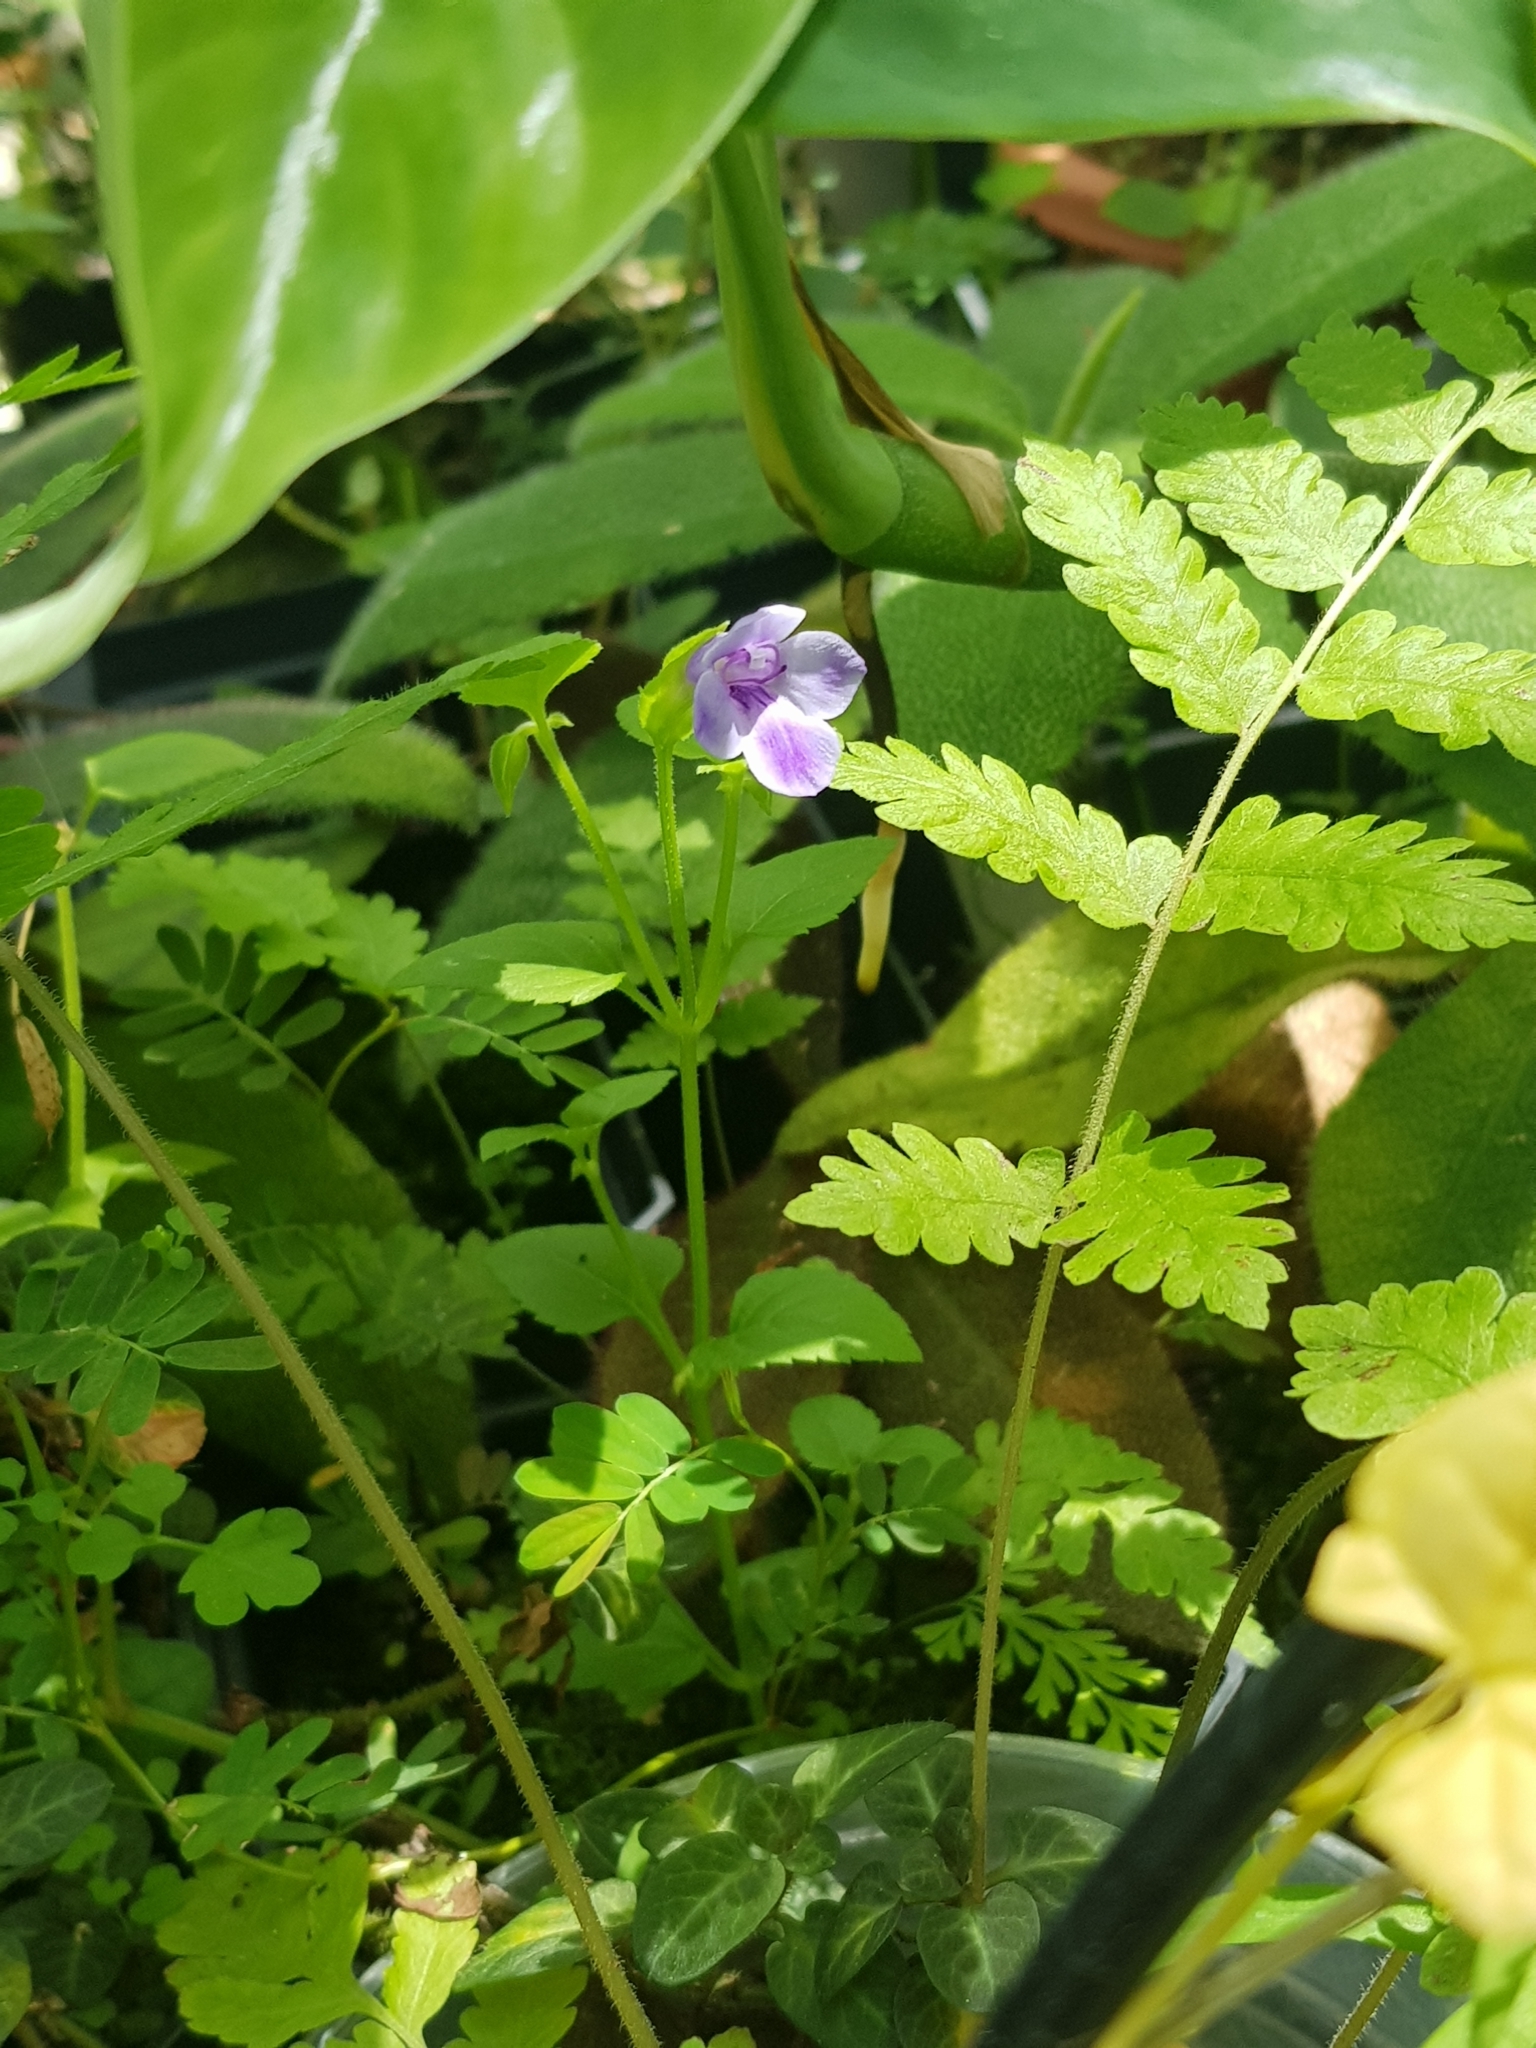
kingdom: Plantae
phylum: Tracheophyta
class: Magnoliopsida
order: Lamiales
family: Linderniaceae
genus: Torenia
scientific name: Torenia asiatica
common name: Wishbone flower
